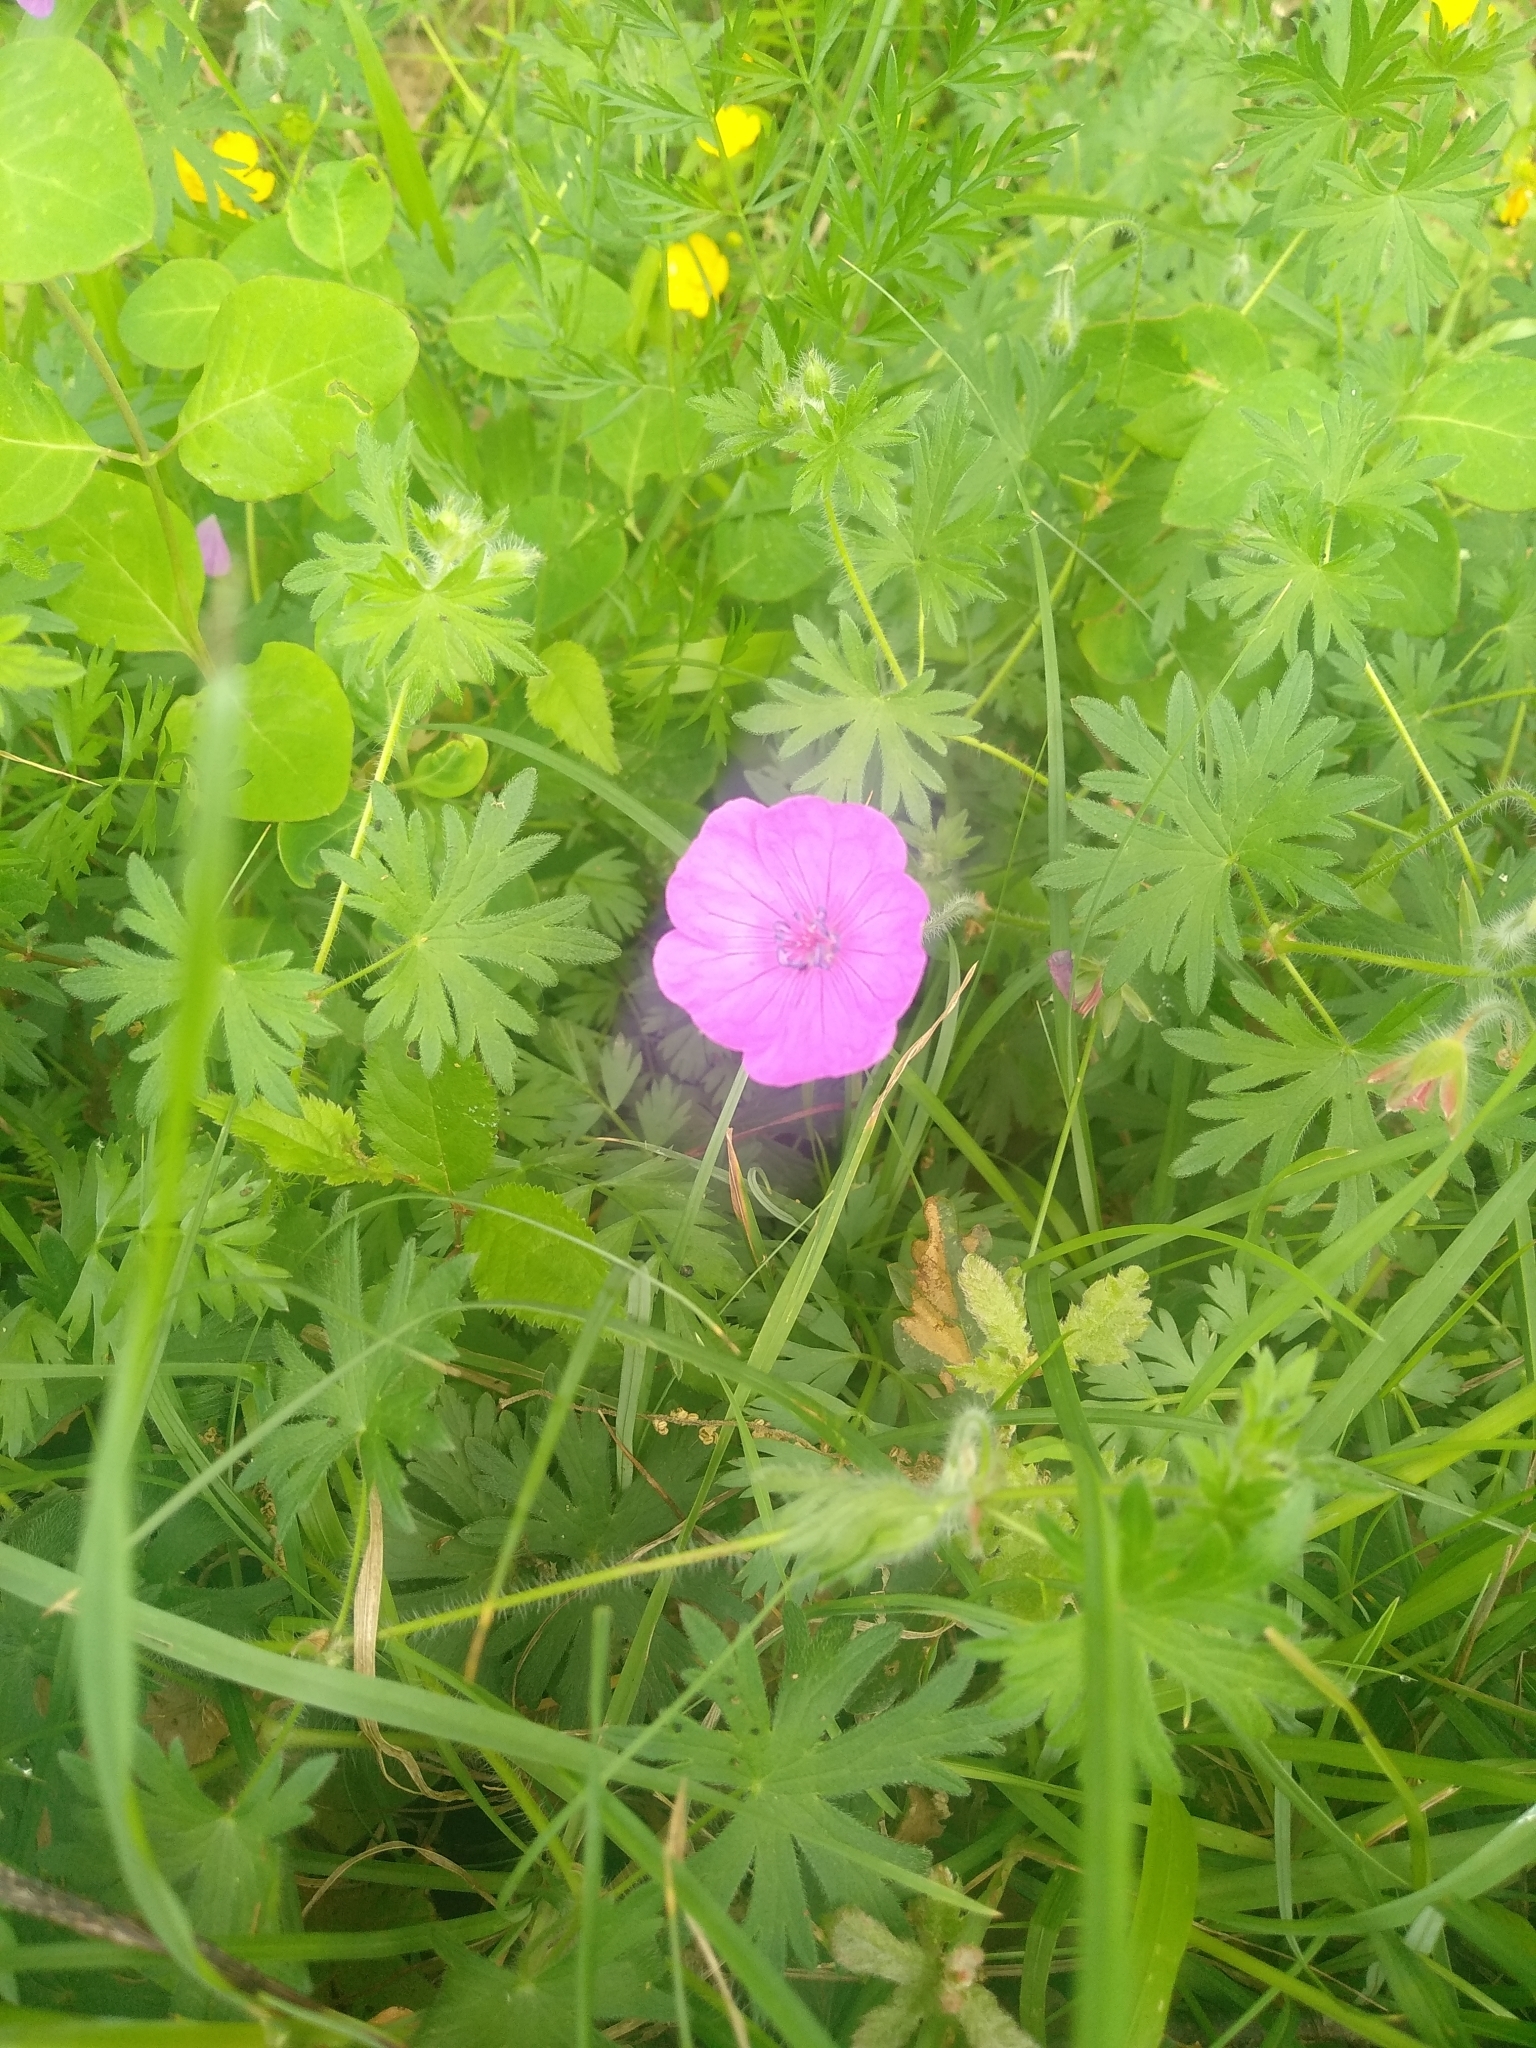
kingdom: Plantae
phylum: Tracheophyta
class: Magnoliopsida
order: Geraniales
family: Geraniaceae
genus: Geranium
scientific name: Geranium sanguineum
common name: Bloody crane's-bill
